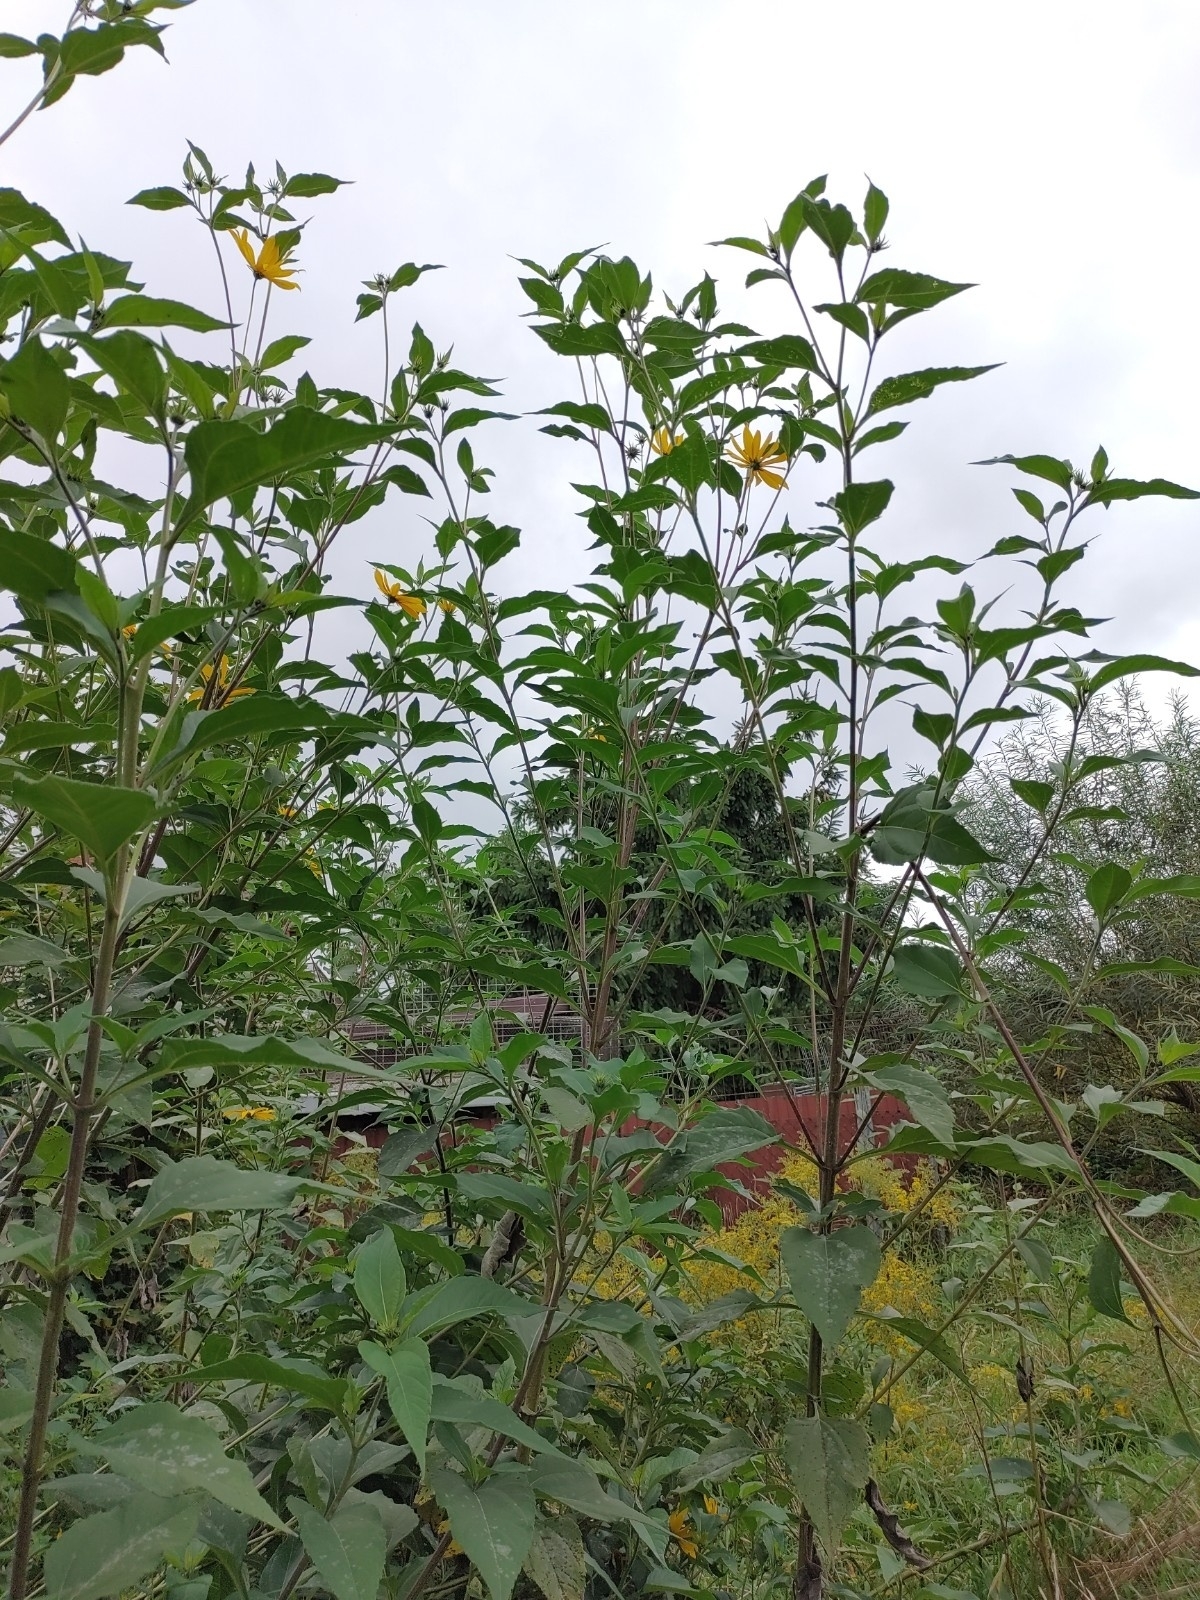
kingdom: Plantae
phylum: Tracheophyta
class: Magnoliopsida
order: Asterales
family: Asteraceae
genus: Helianthus
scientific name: Helianthus tuberosus
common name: Jerusalem artichoke
